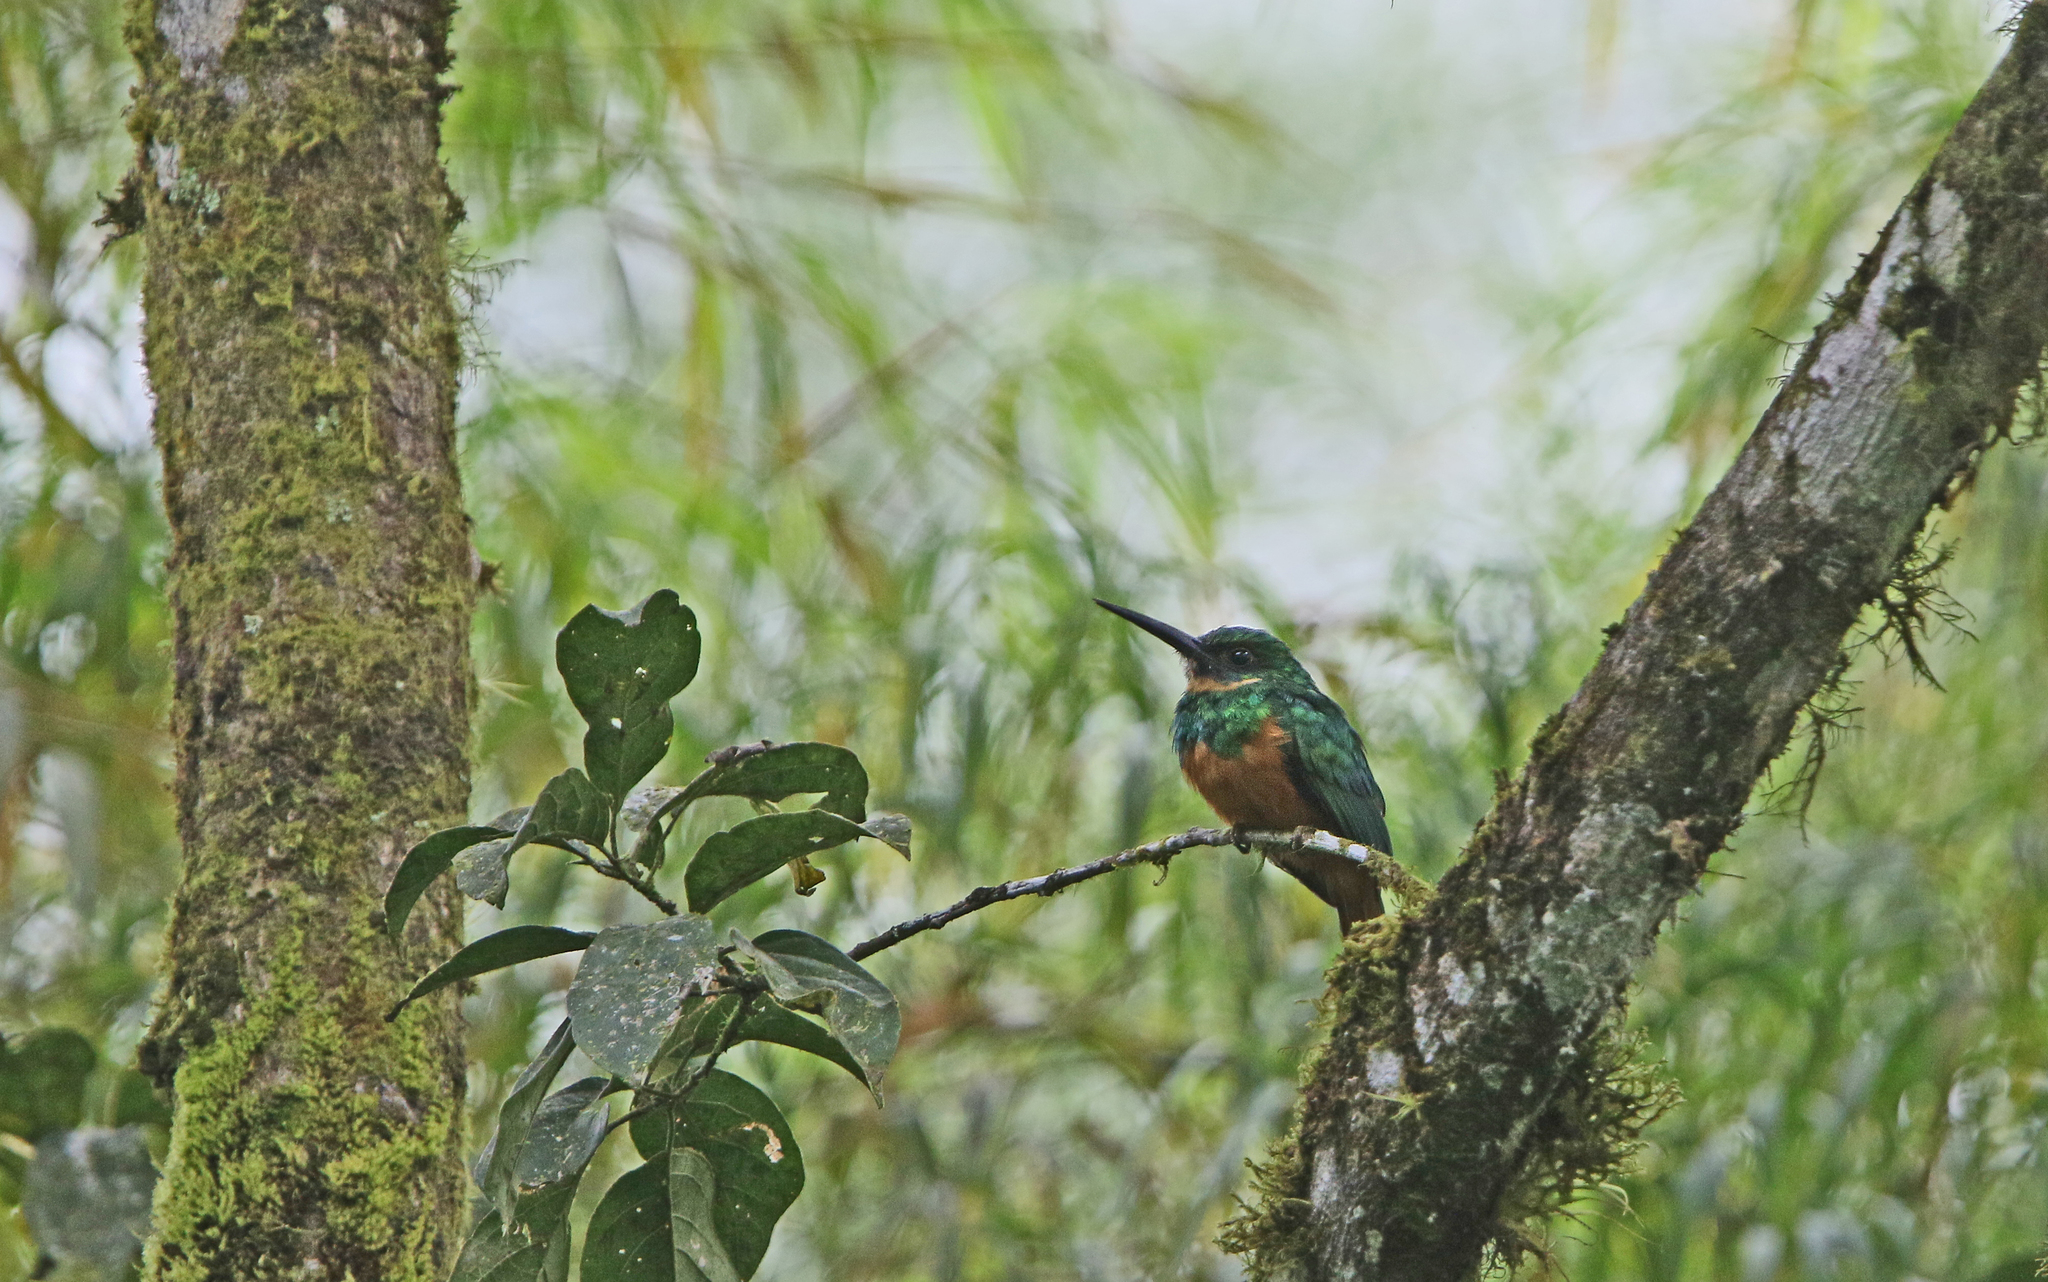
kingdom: Animalia
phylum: Chordata
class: Aves
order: Piciformes
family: Galbulidae
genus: Galbula
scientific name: Galbula ruficauda
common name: Rufous-tailed jacamar
